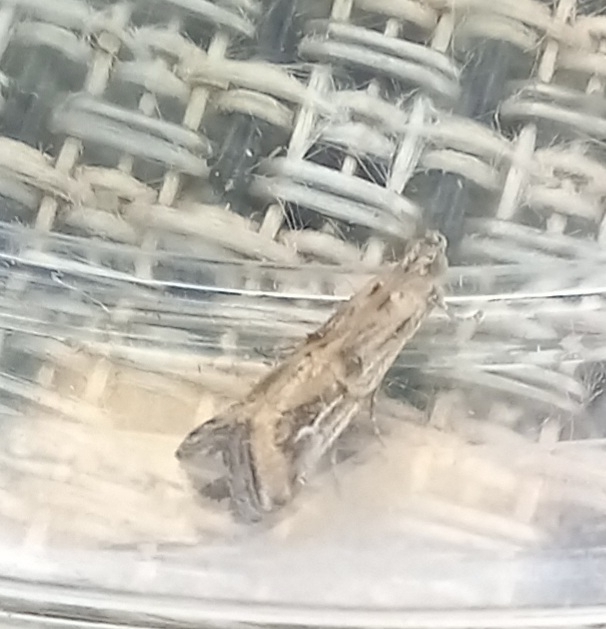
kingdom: Animalia
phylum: Arthropoda
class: Insecta
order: Lepidoptera
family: Pyralidae
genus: Pempelia
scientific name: Pempelia genistella
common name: Gorse knot-horn
